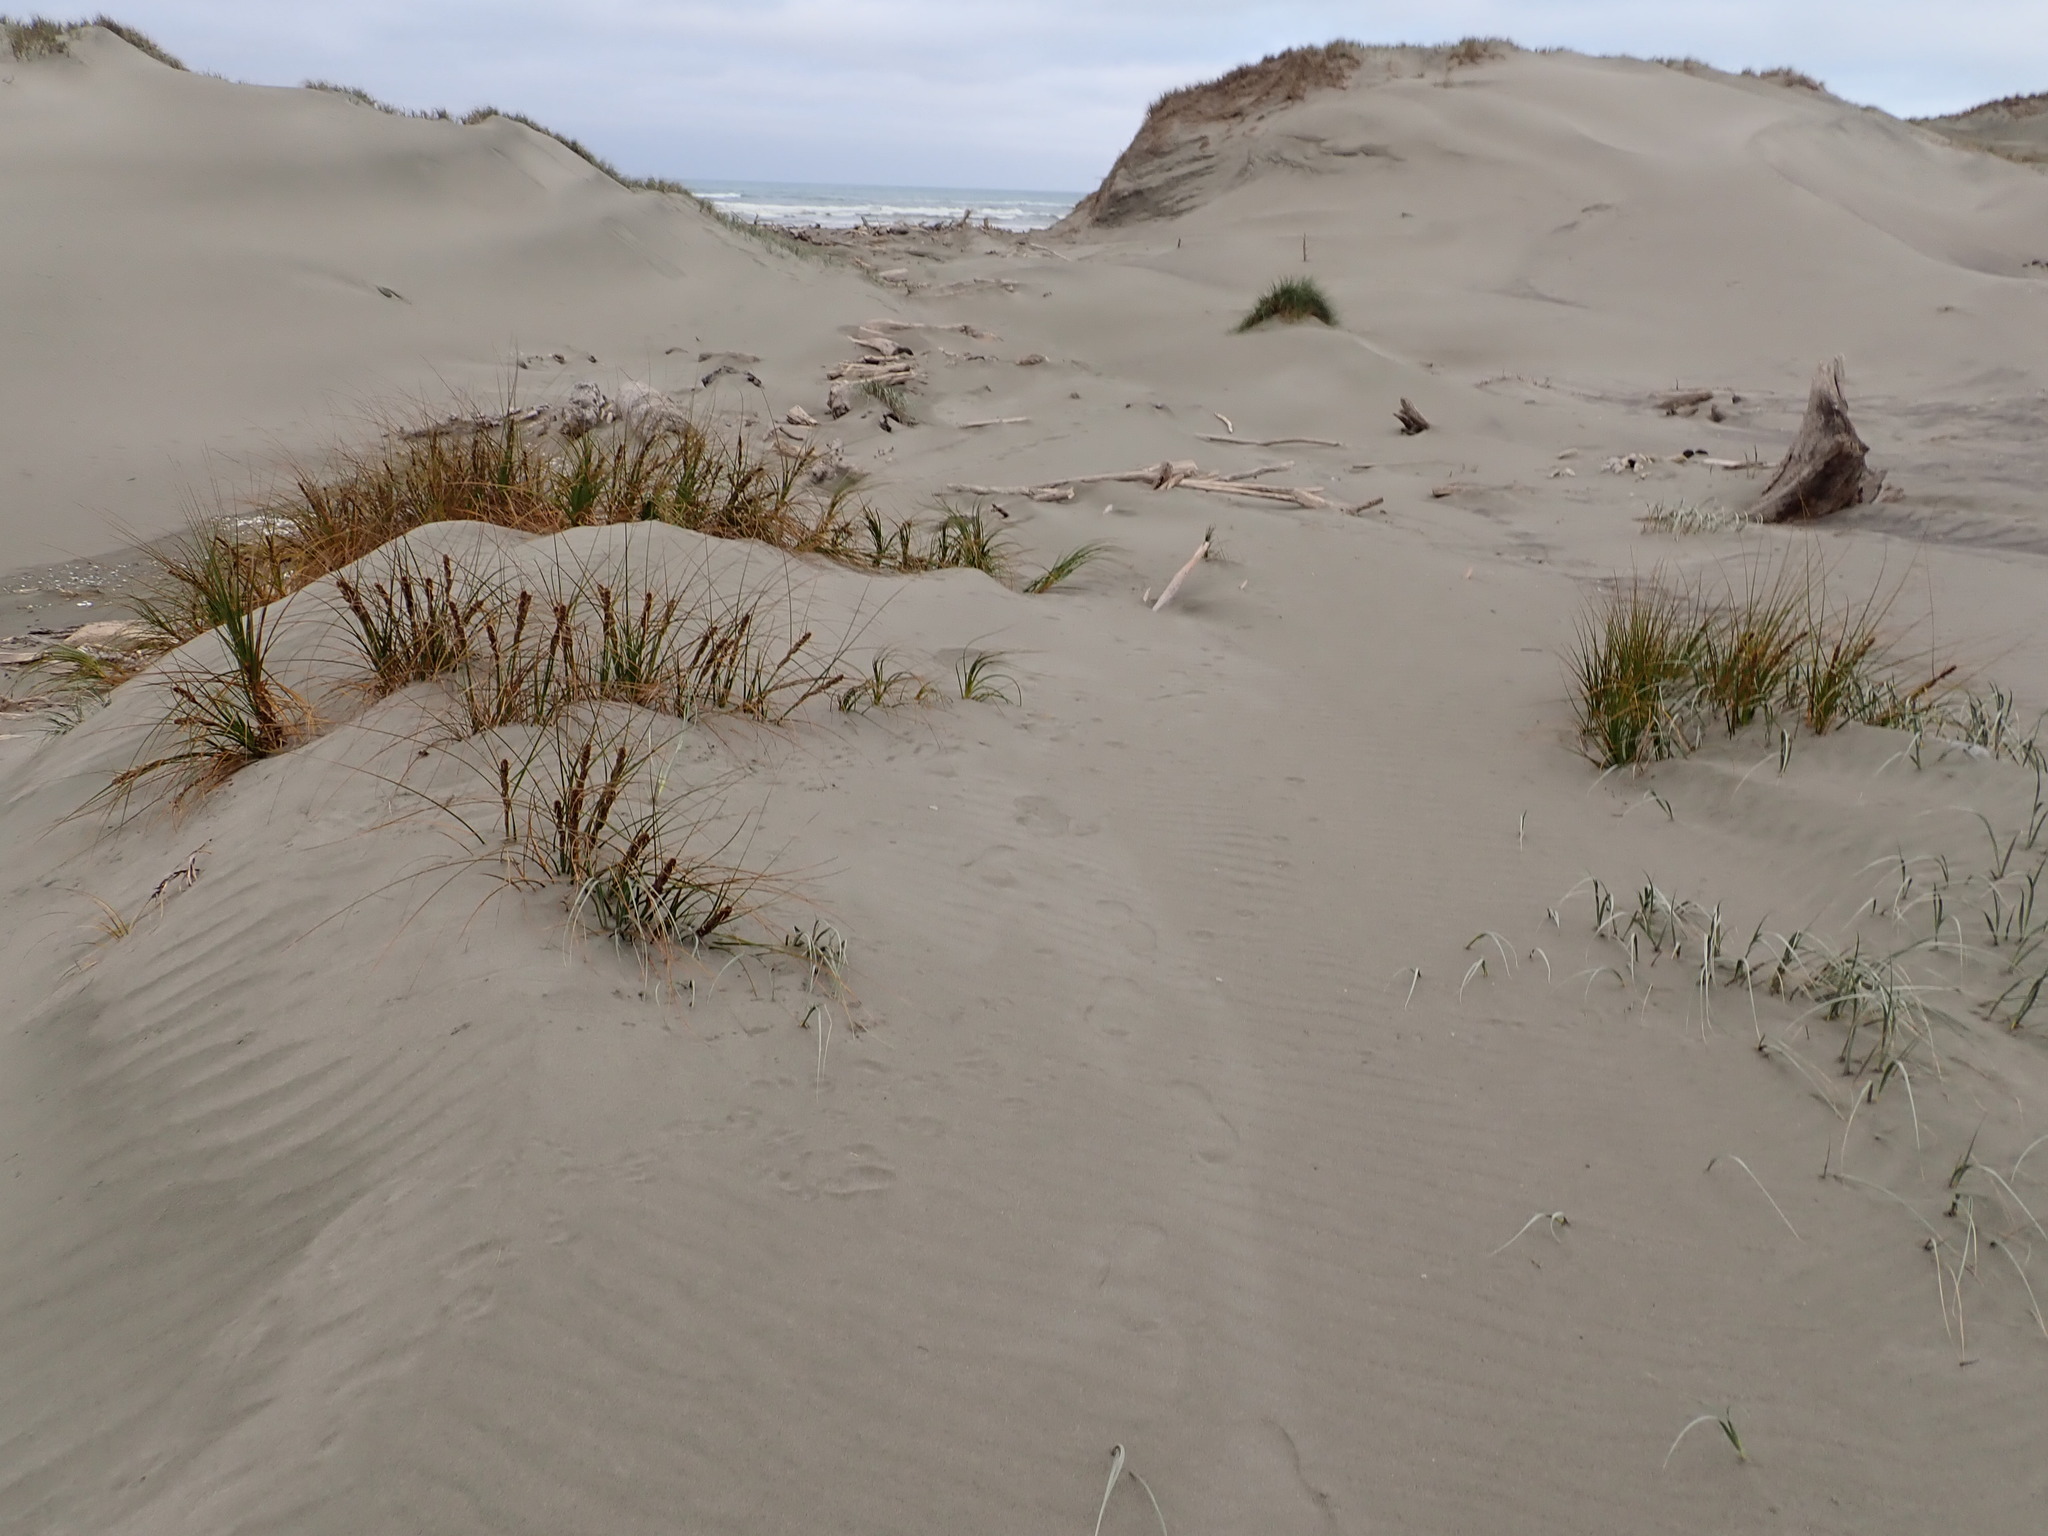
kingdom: Plantae
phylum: Tracheophyta
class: Liliopsida
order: Poales
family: Cyperaceae
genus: Ficinia
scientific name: Ficinia spiralis
